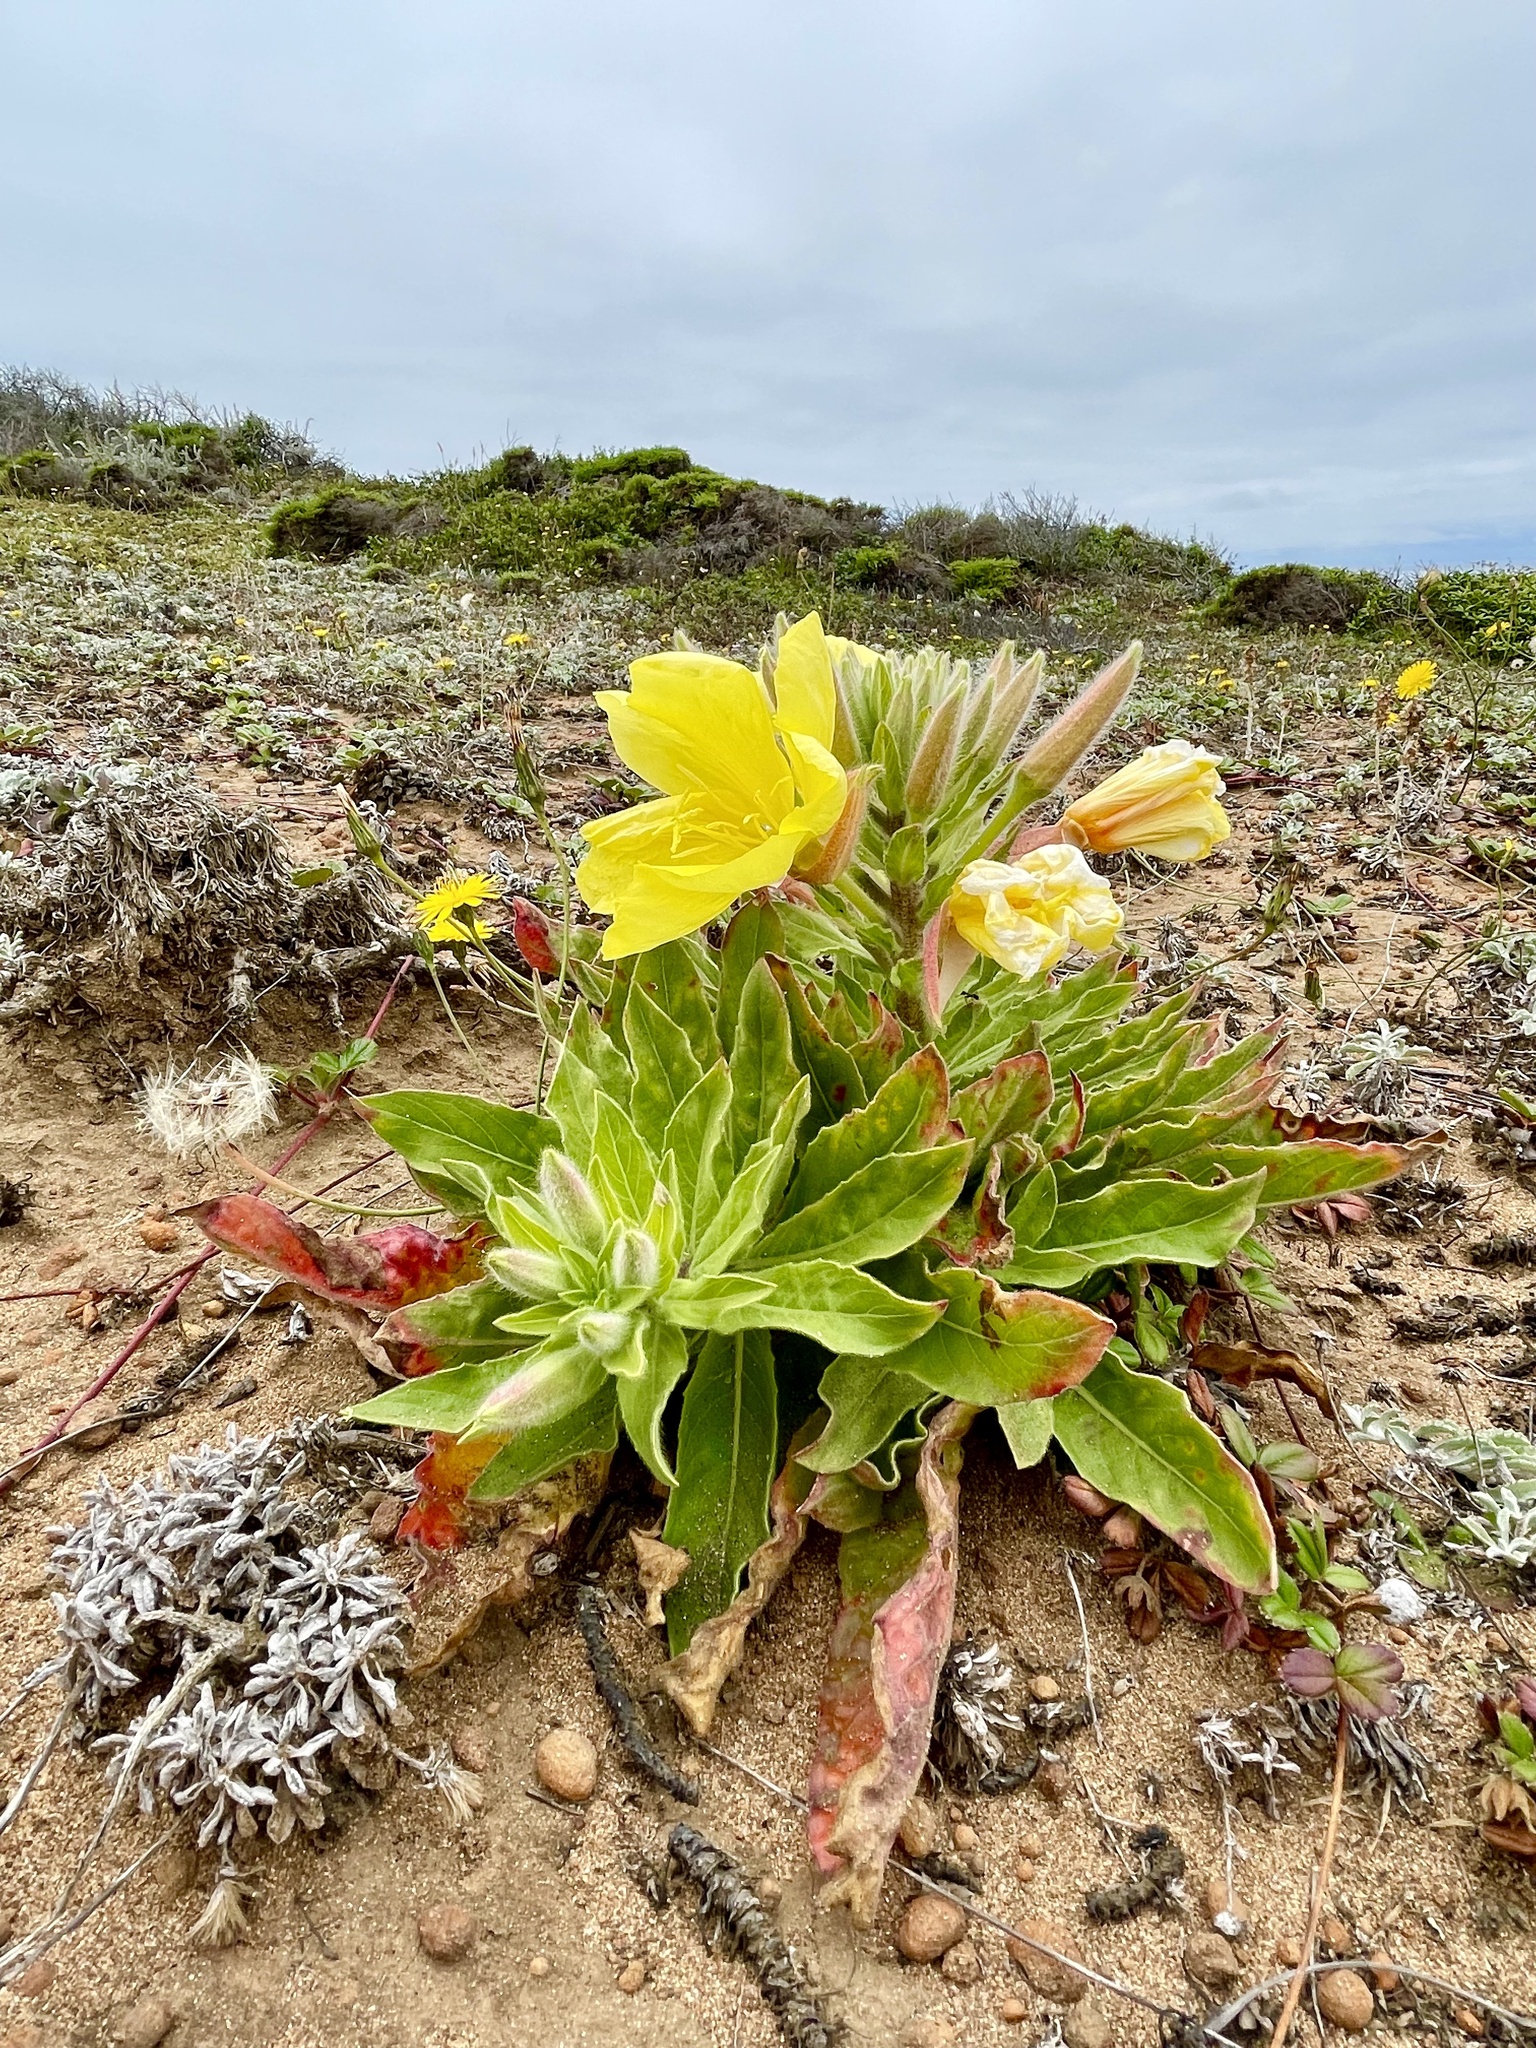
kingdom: Plantae
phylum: Tracheophyta
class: Magnoliopsida
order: Myrtales
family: Onagraceae
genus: Oenothera
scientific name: Oenothera elata
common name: Hooker's evening-primrose
